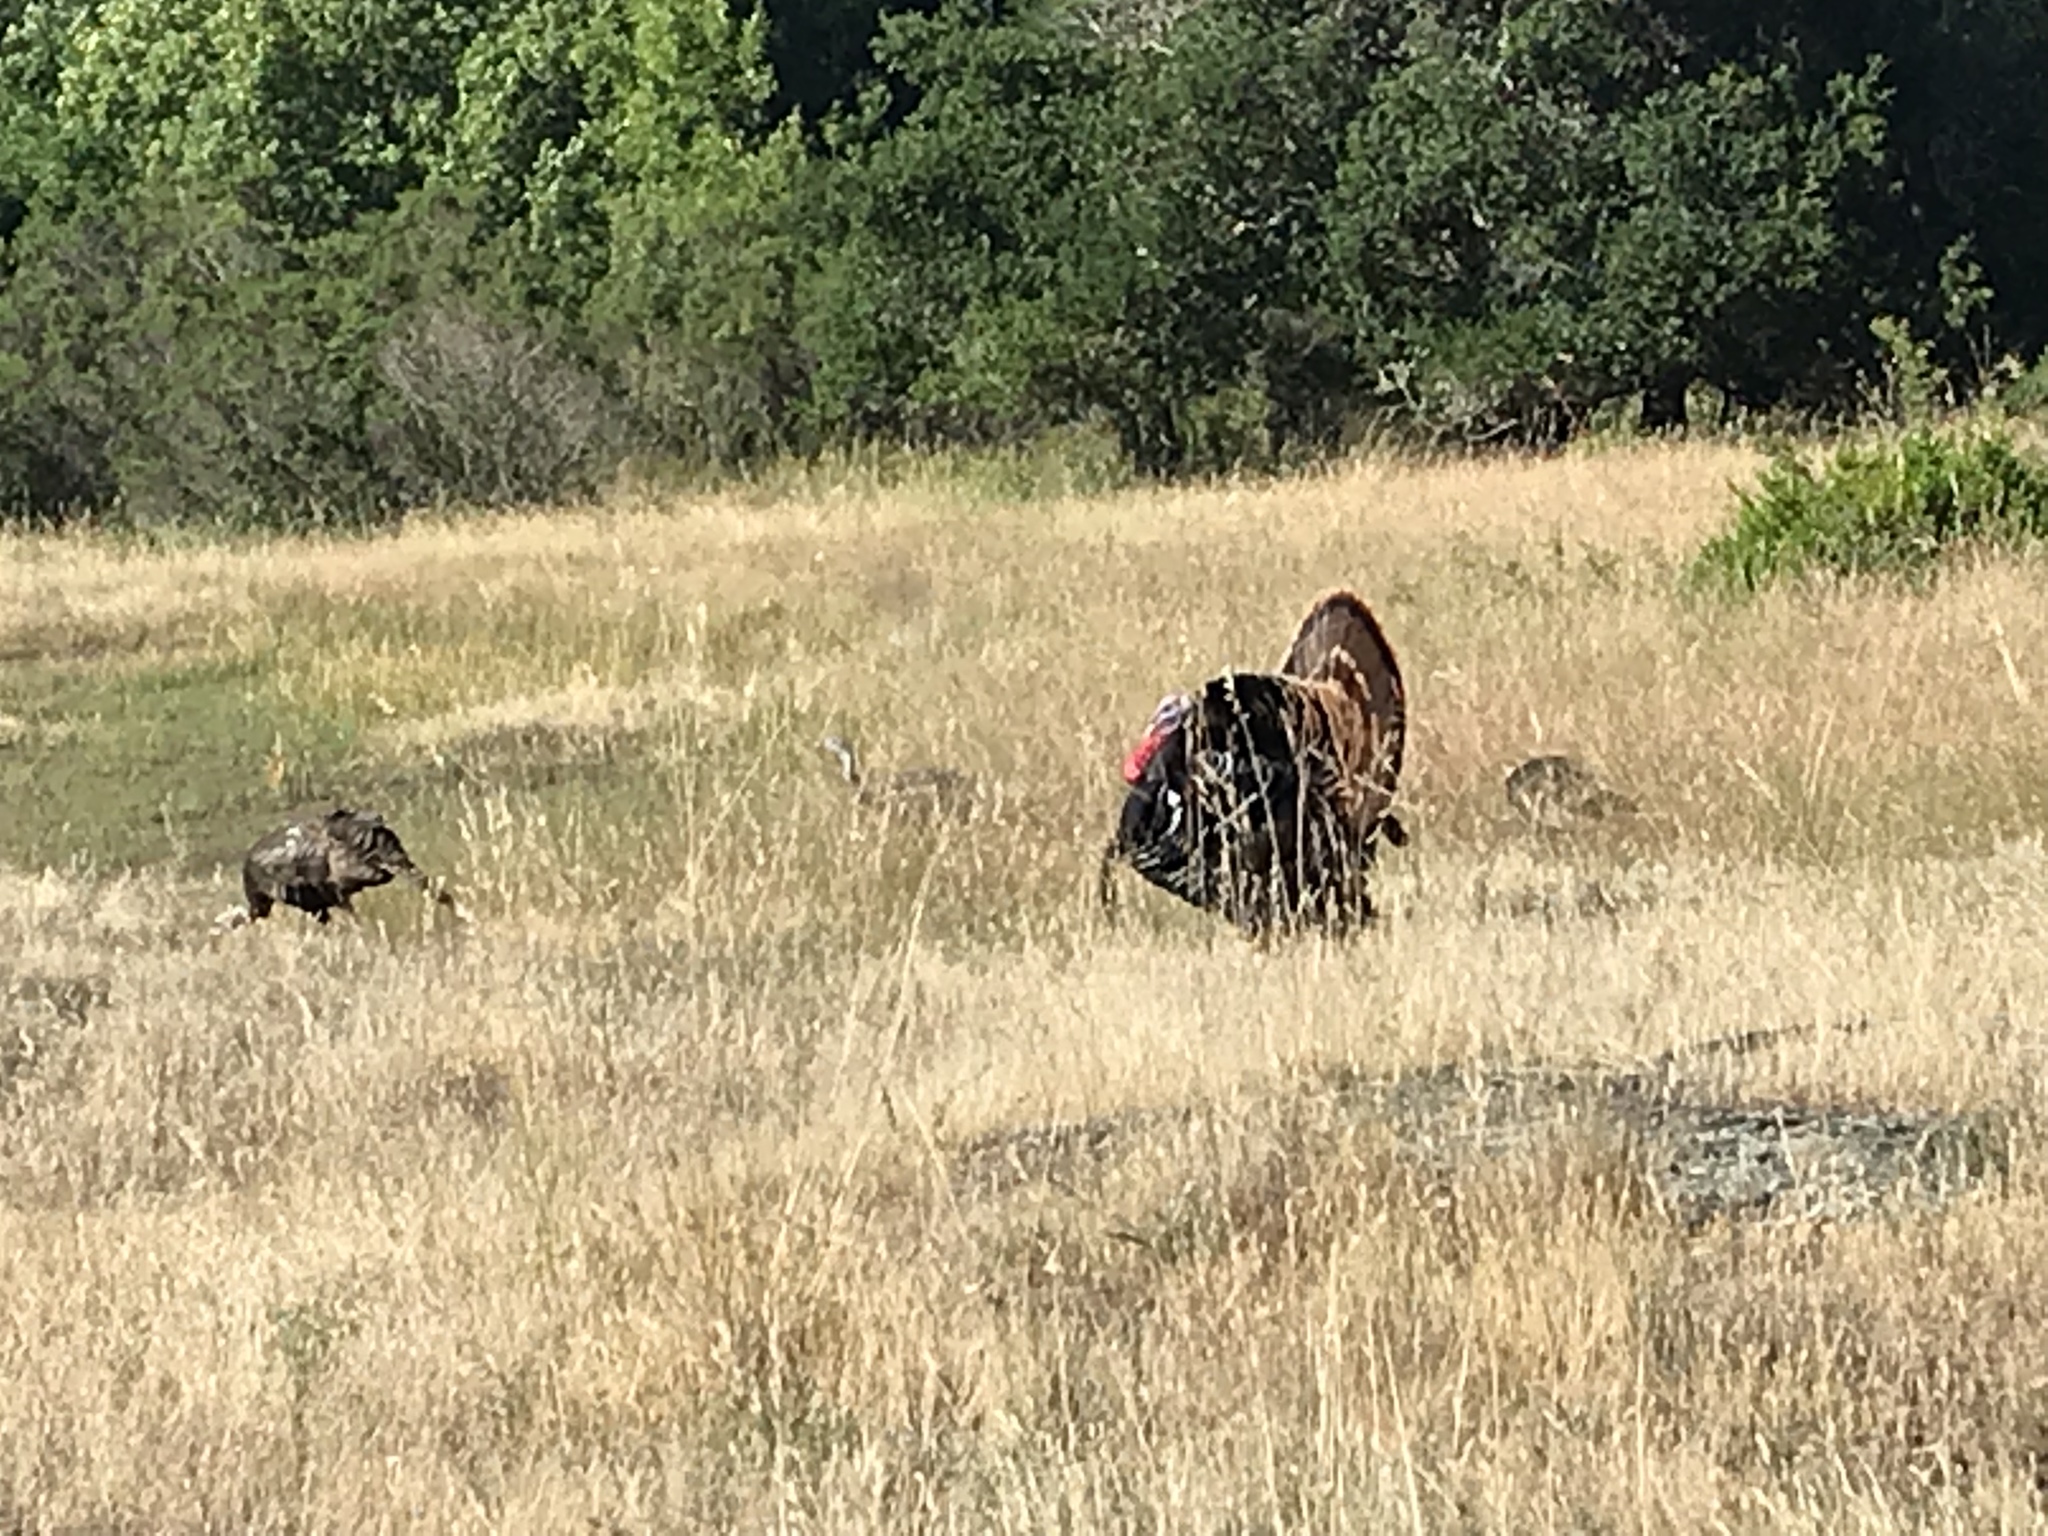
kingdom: Animalia
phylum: Chordata
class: Aves
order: Galliformes
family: Phasianidae
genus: Meleagris
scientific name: Meleagris gallopavo
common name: Wild turkey
